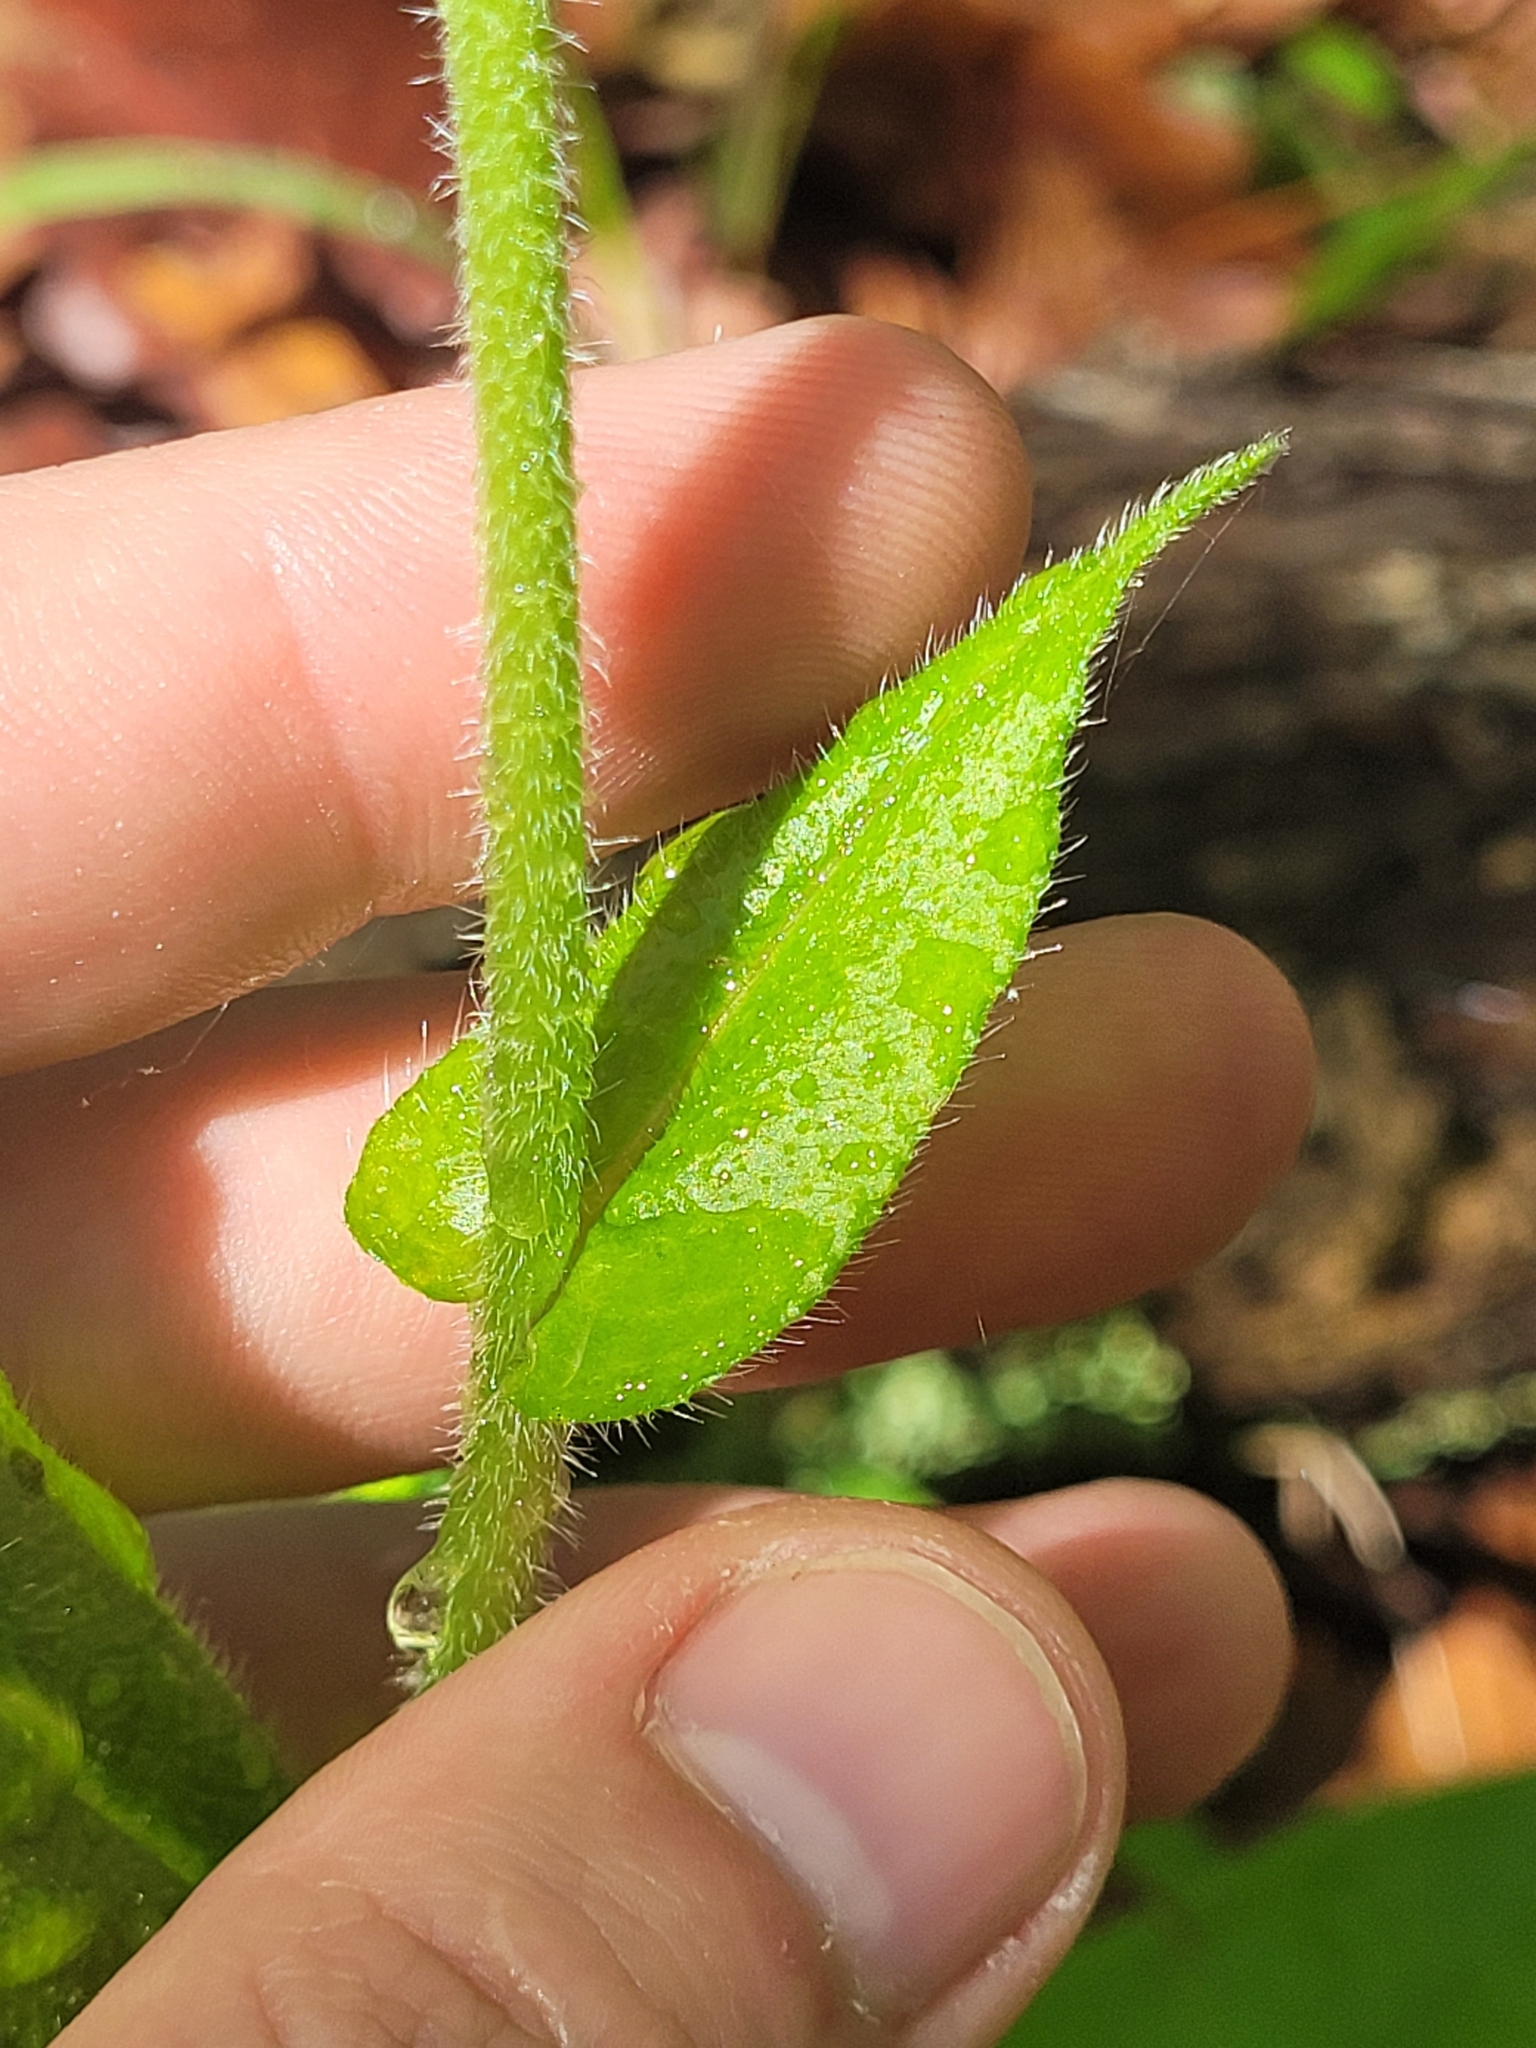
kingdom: Plantae
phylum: Tracheophyta
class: Magnoliopsida
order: Boraginales
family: Boraginaceae
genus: Andersonglossum
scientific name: Andersonglossum virginianum
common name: Wild comfrey
